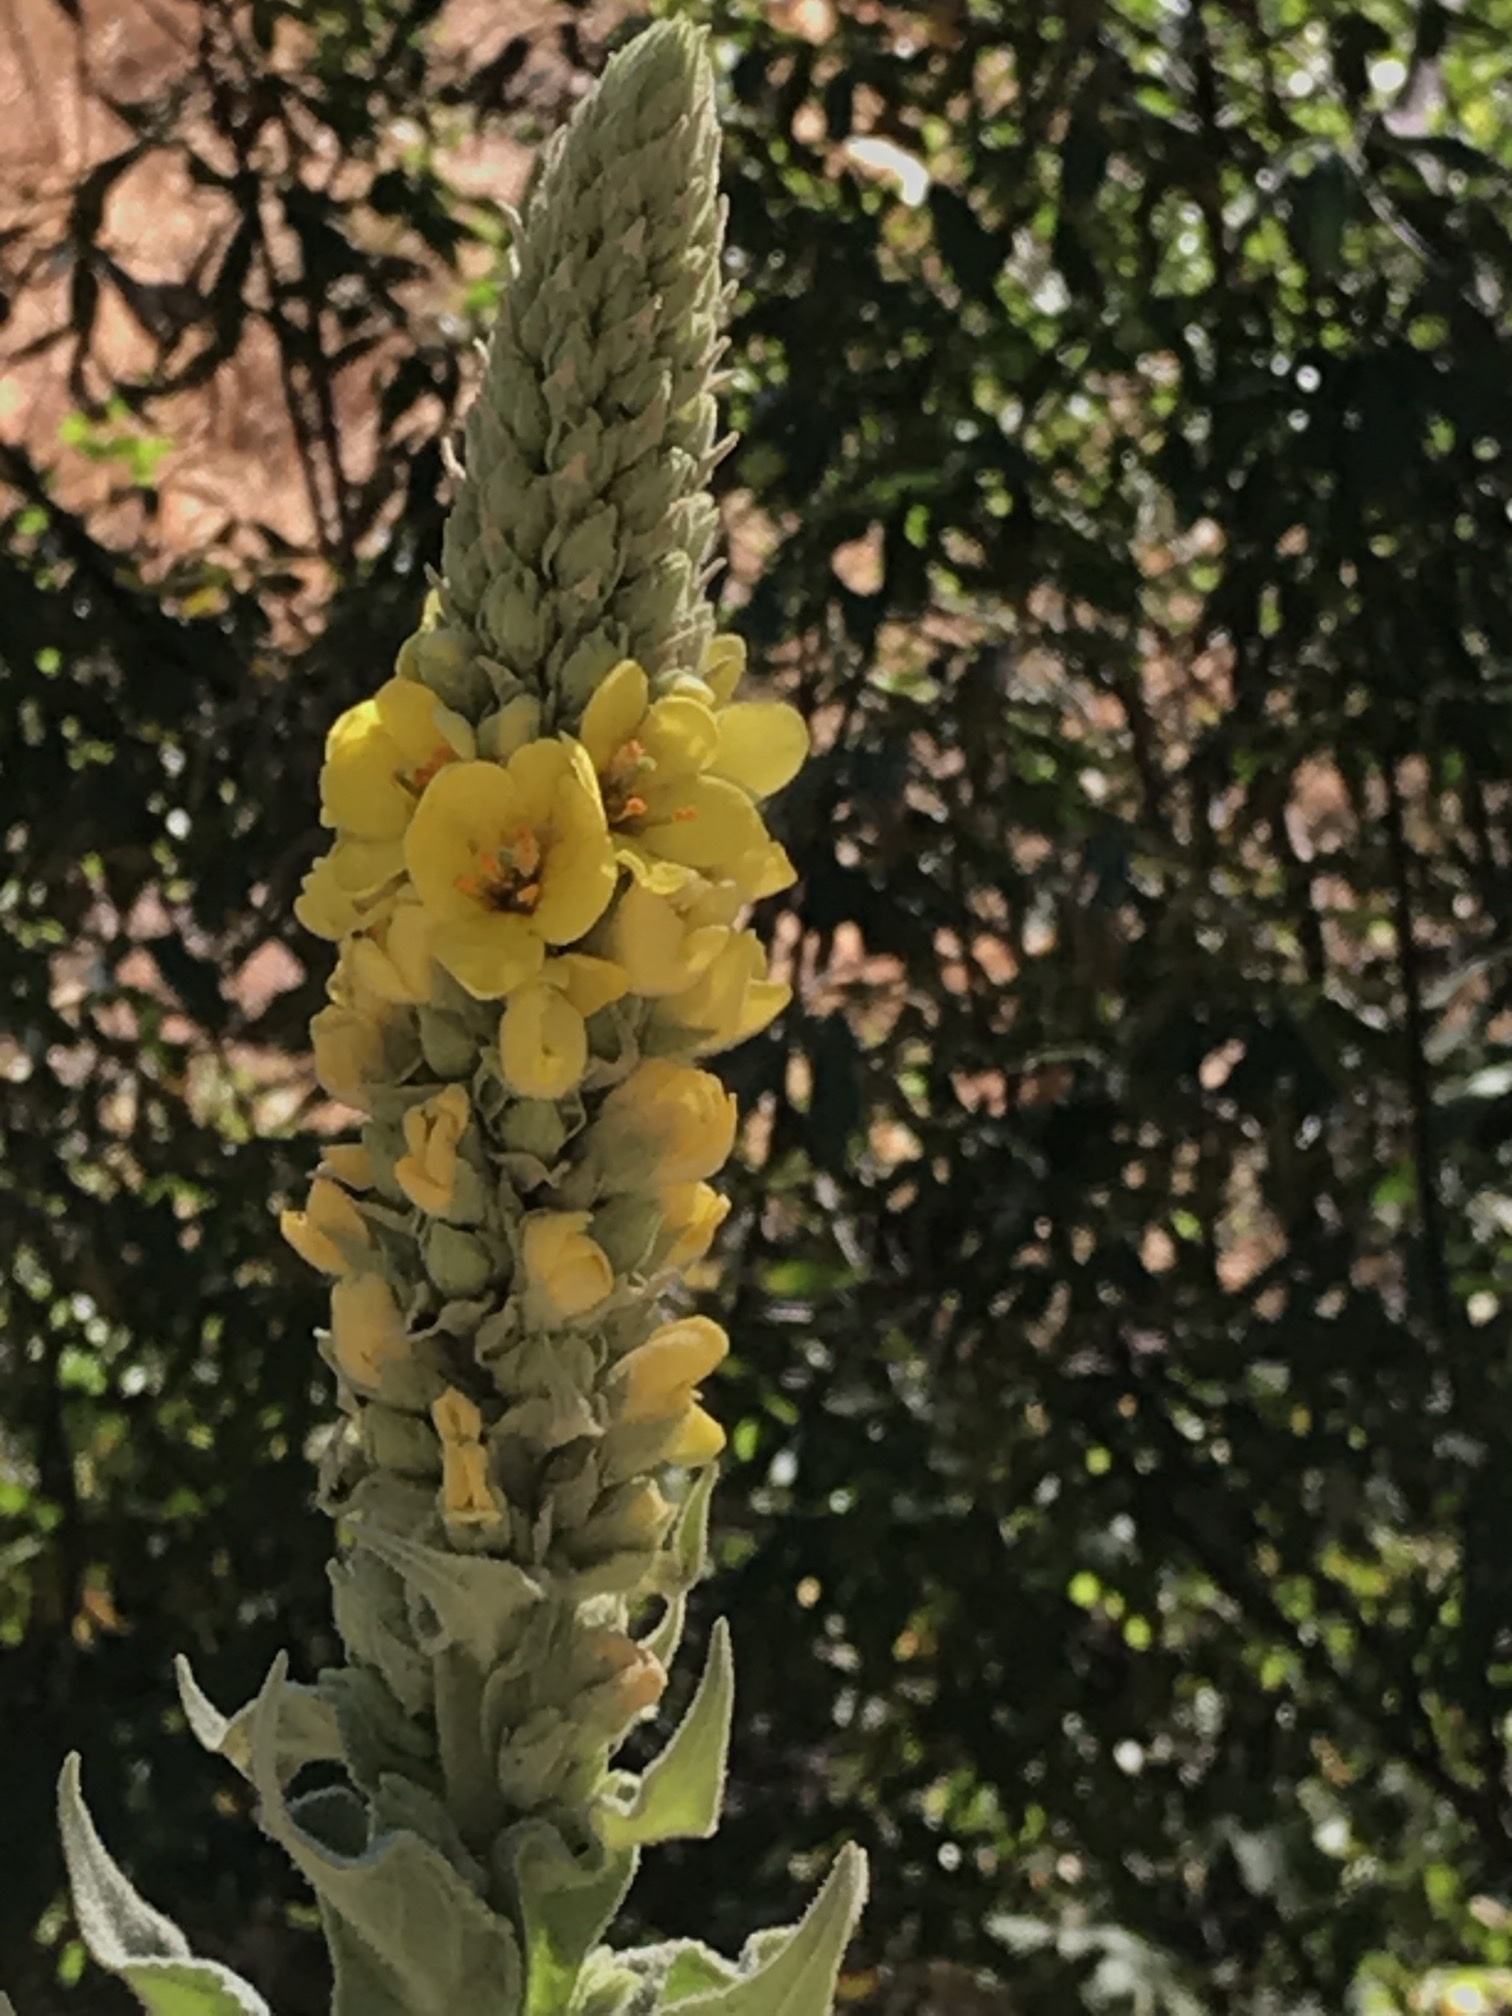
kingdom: Plantae
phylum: Tracheophyta
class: Magnoliopsida
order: Lamiales
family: Scrophulariaceae
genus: Verbascum
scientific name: Verbascum thapsus
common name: Common mullein
